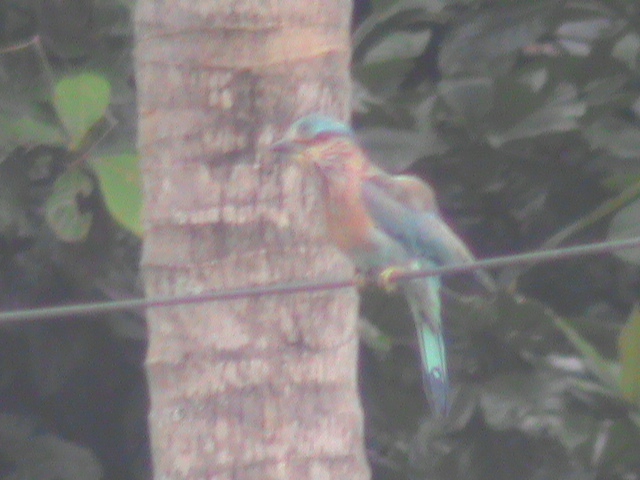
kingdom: Animalia
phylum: Chordata
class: Aves
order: Coraciiformes
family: Coraciidae
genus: Coracias
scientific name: Coracias benghalensis
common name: Indian roller
